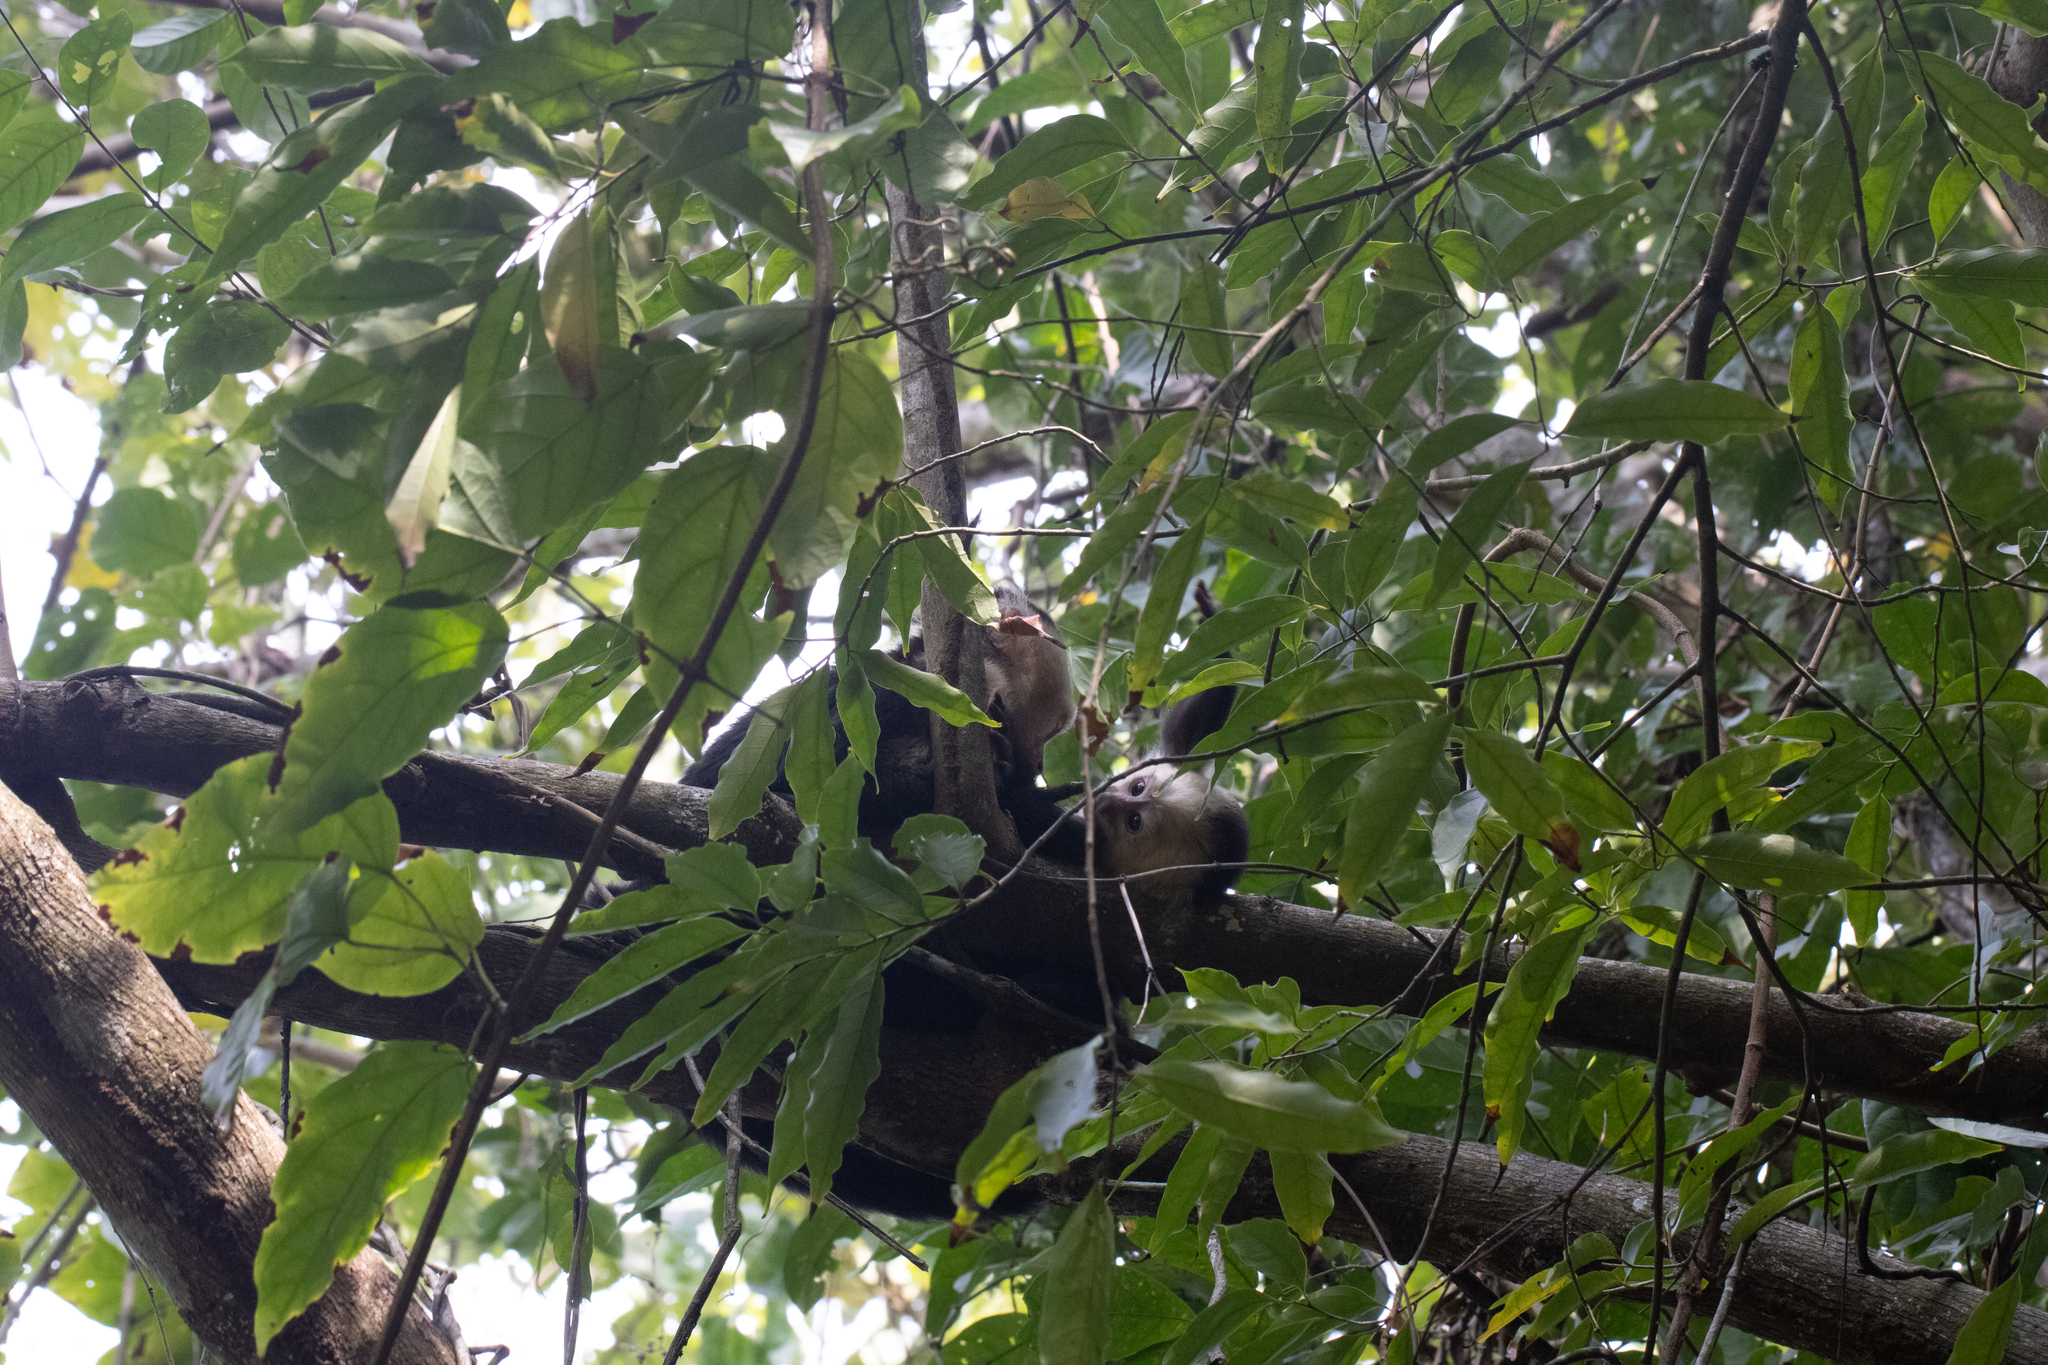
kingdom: Animalia
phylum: Chordata
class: Mammalia
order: Primates
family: Cebidae
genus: Cebus
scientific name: Cebus imitator
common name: Panamanian white-faced capuchin
